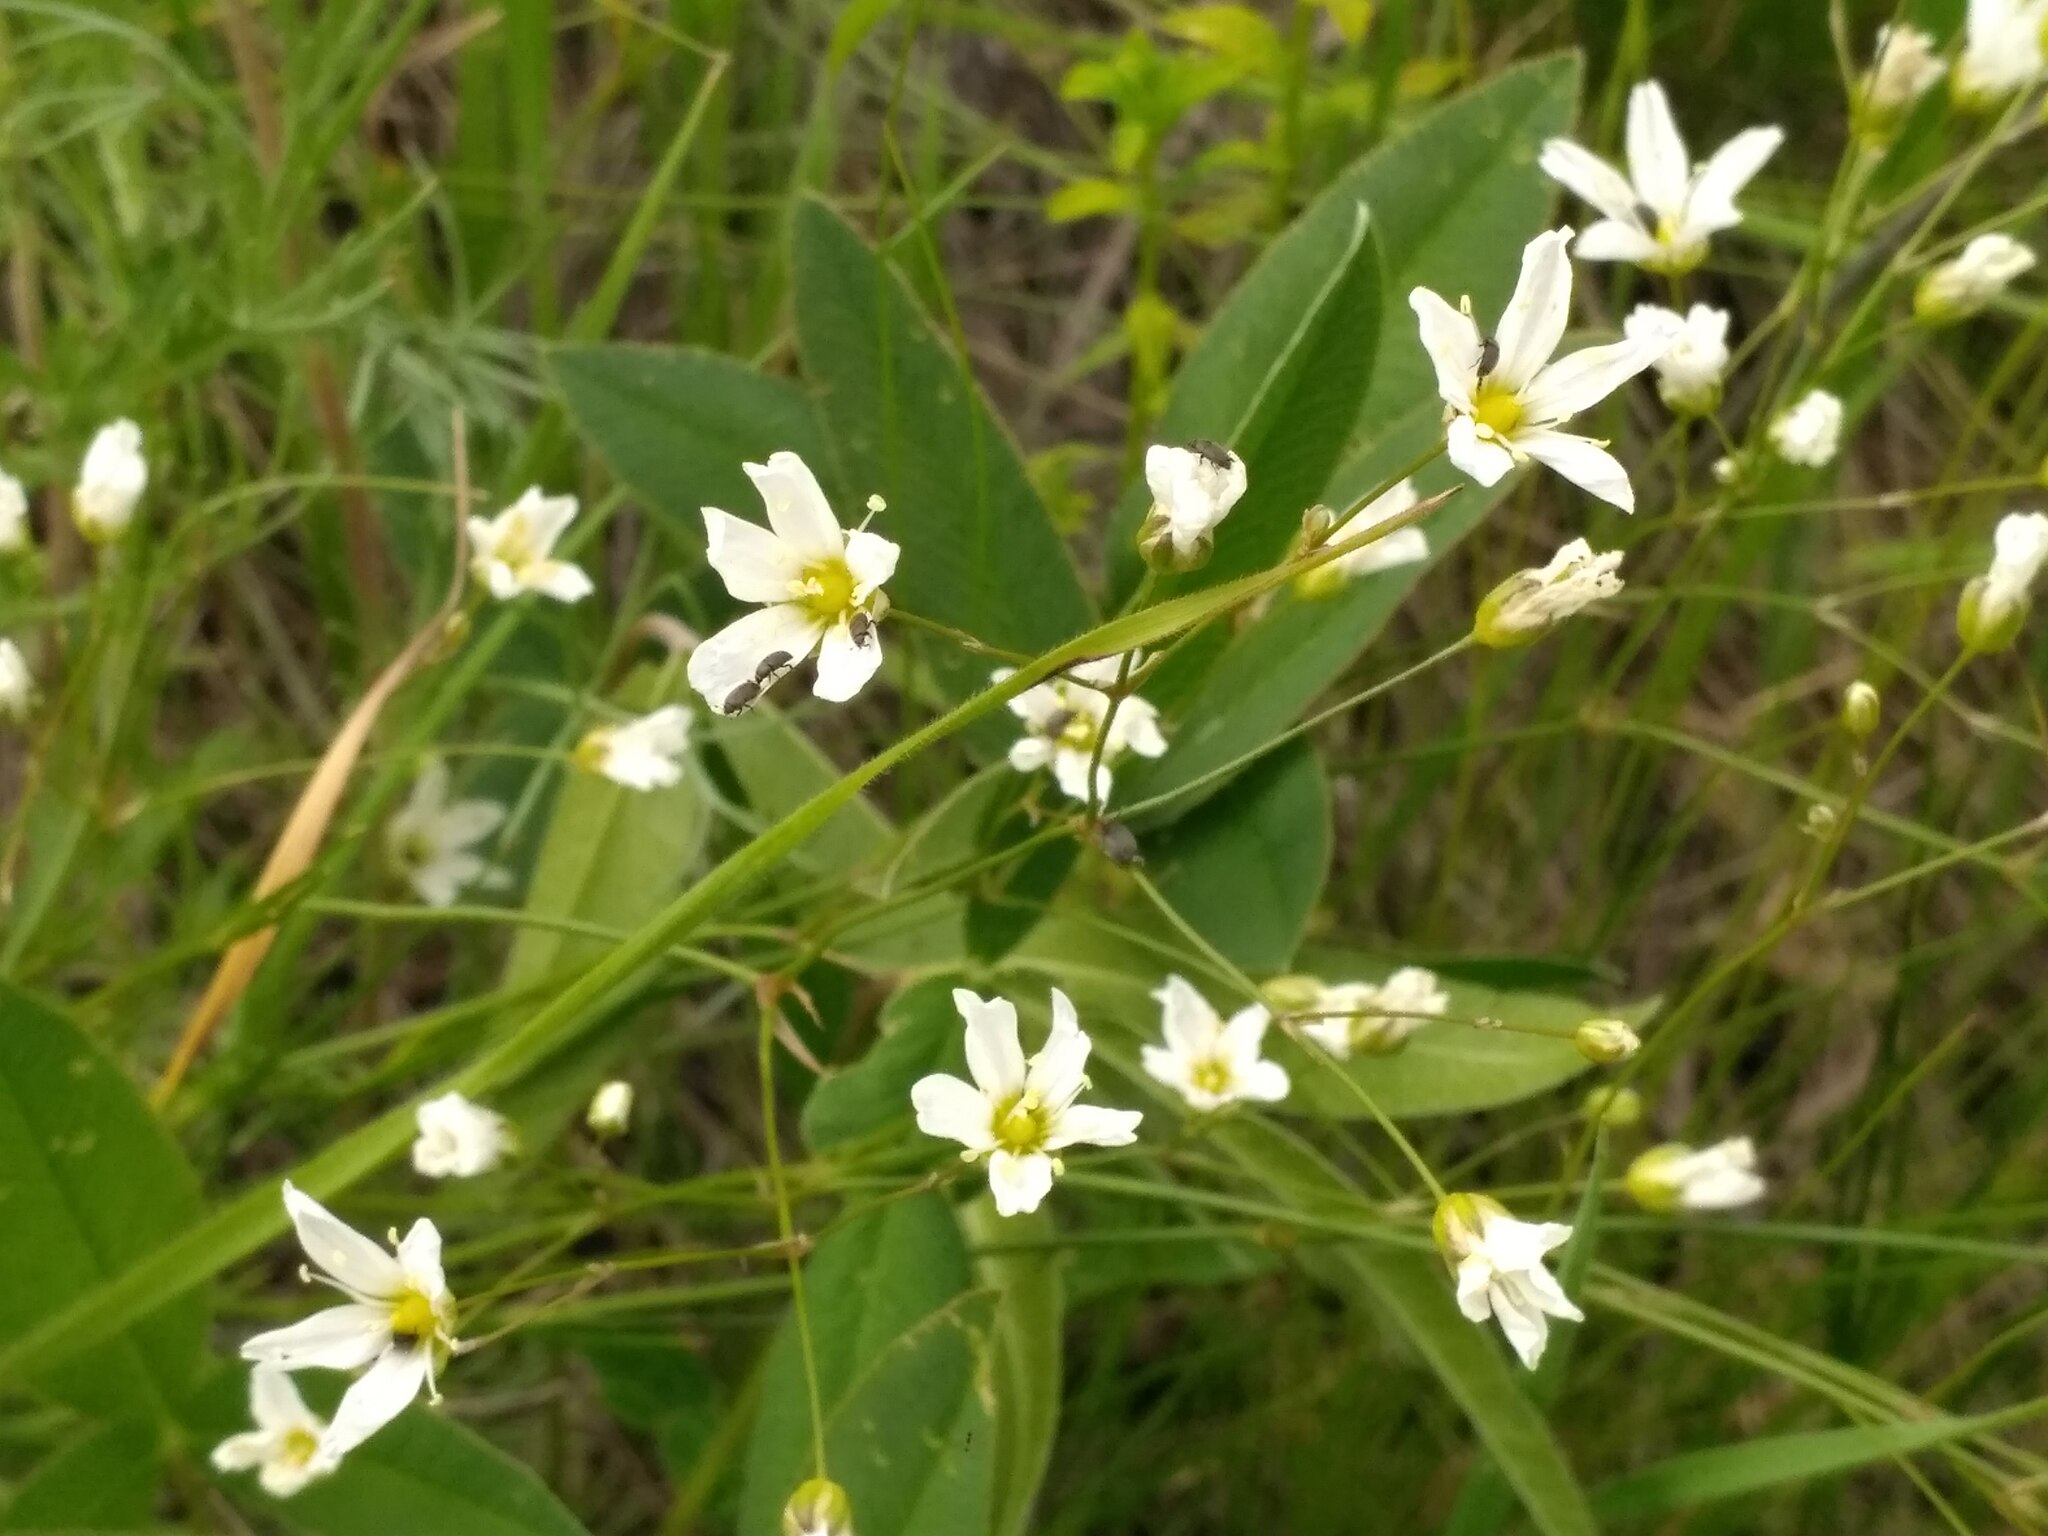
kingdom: Plantae
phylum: Tracheophyta
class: Magnoliopsida
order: Caryophyllales
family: Caryophyllaceae
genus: Eremogone
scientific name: Eremogone saxatilis
